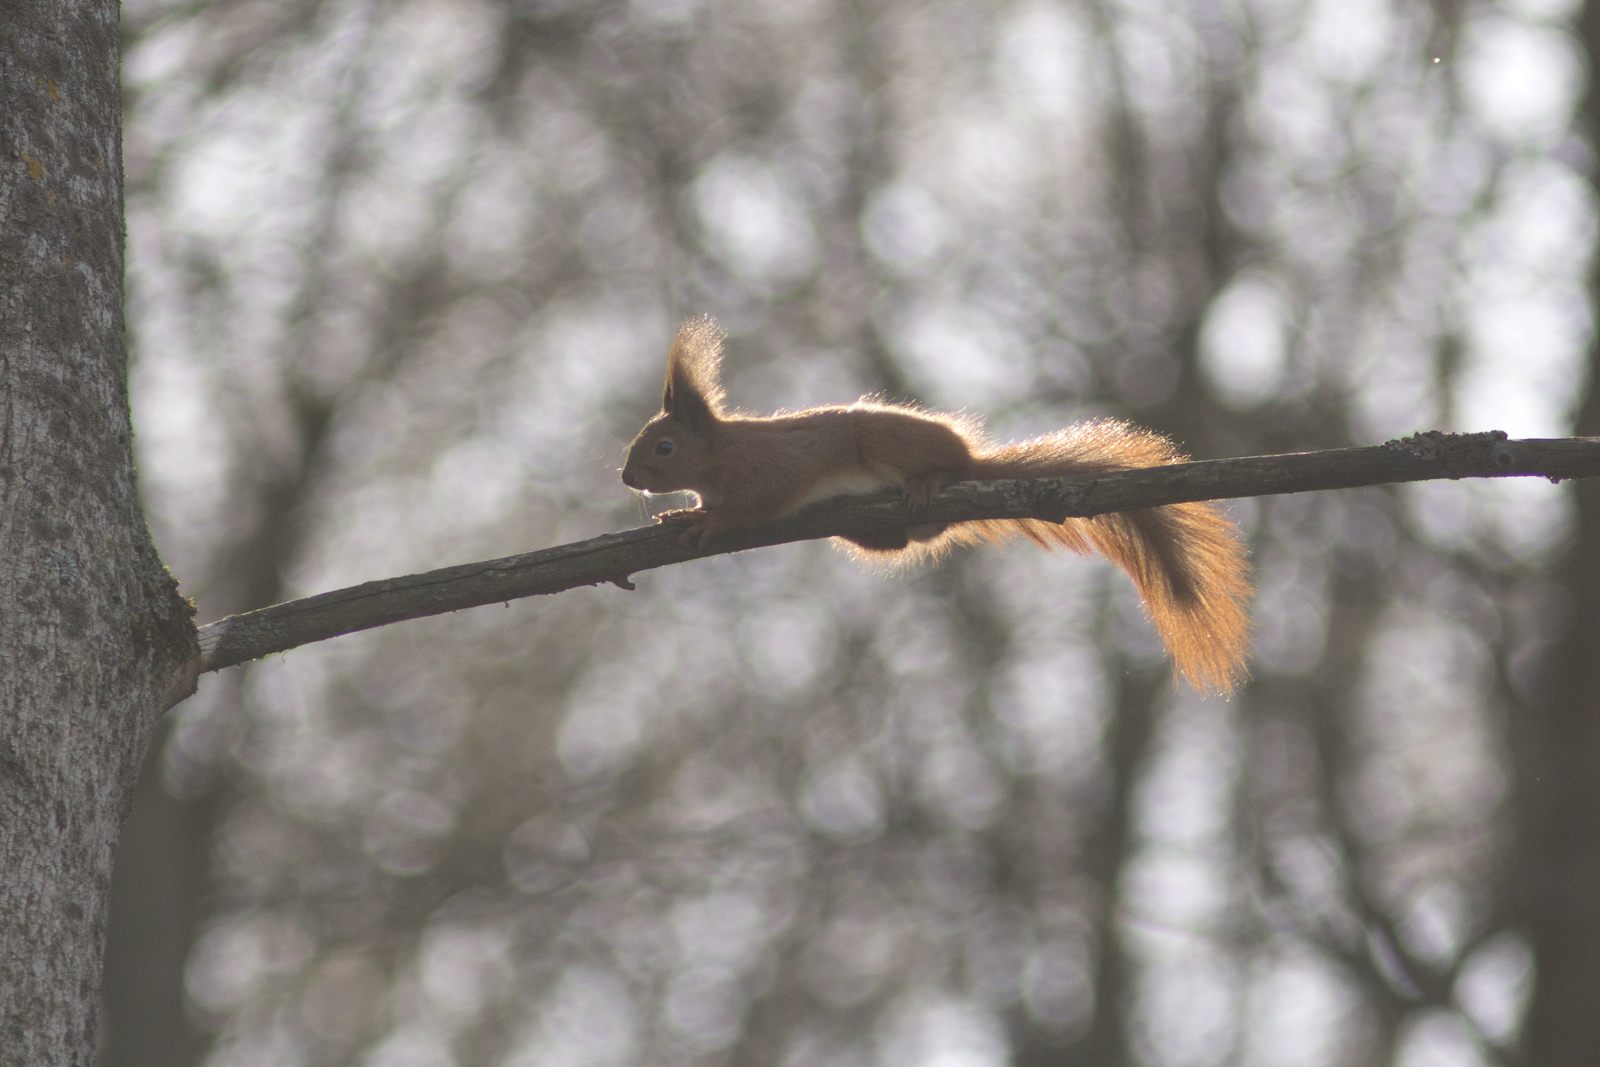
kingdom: Animalia
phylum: Chordata
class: Mammalia
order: Rodentia
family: Sciuridae
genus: Sciurus
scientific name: Sciurus vulgaris
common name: Eurasian red squirrel
